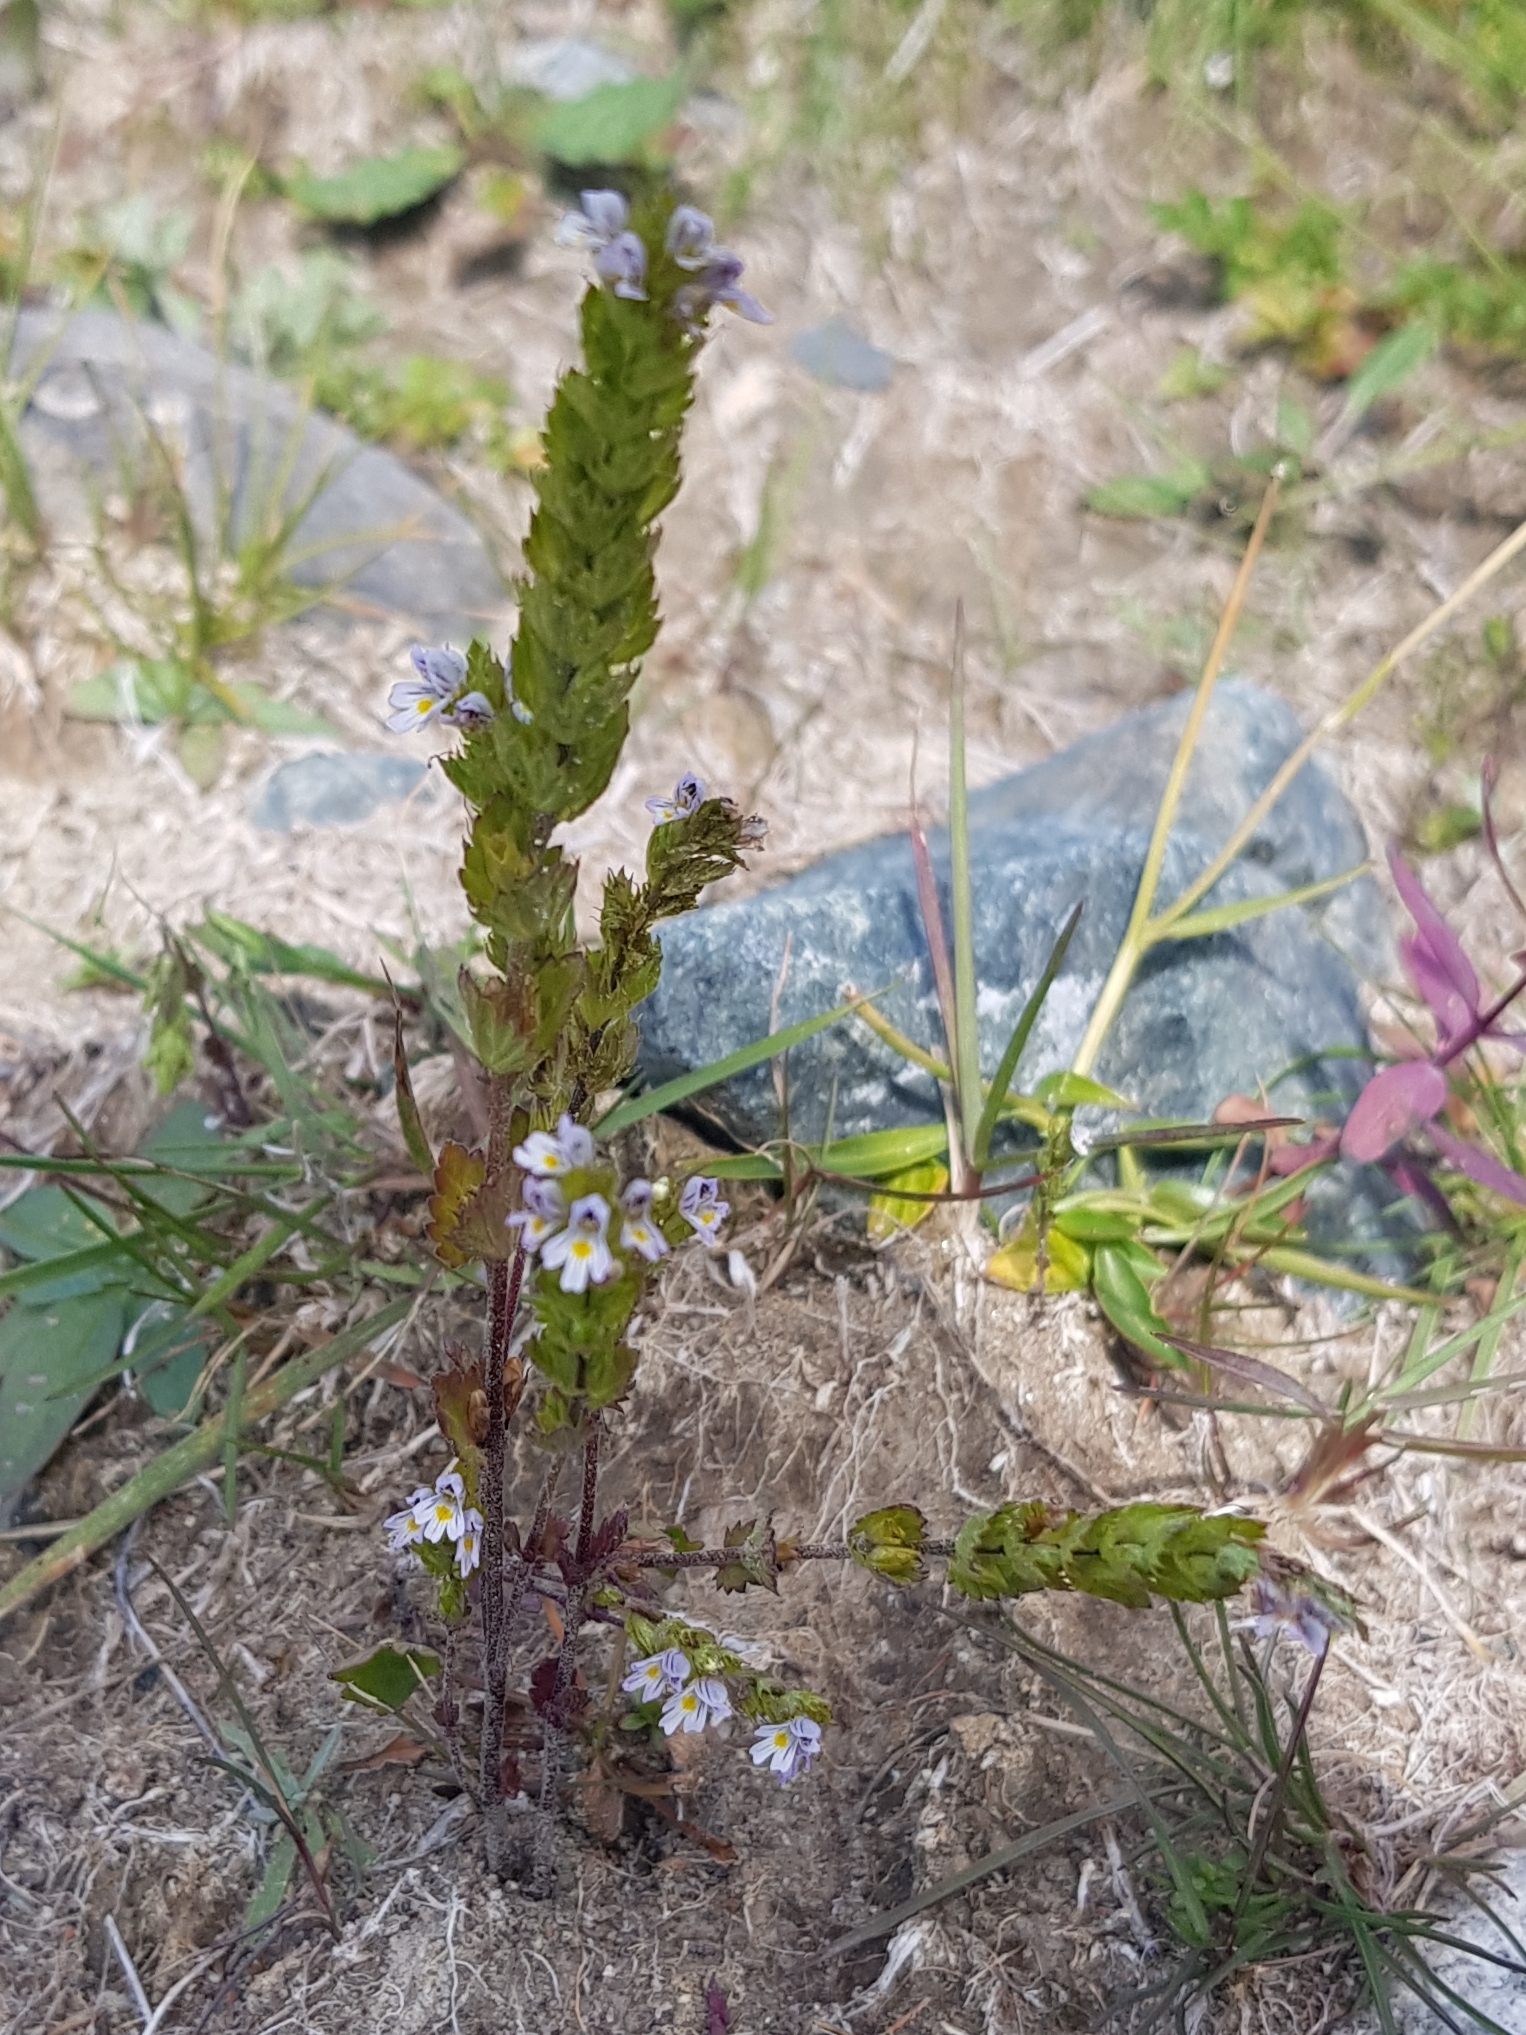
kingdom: Plantae
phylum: Tracheophyta
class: Magnoliopsida
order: Lamiales
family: Orobanchaceae
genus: Euphrasia
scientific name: Euphrasia stricta
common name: Drug eyebright
